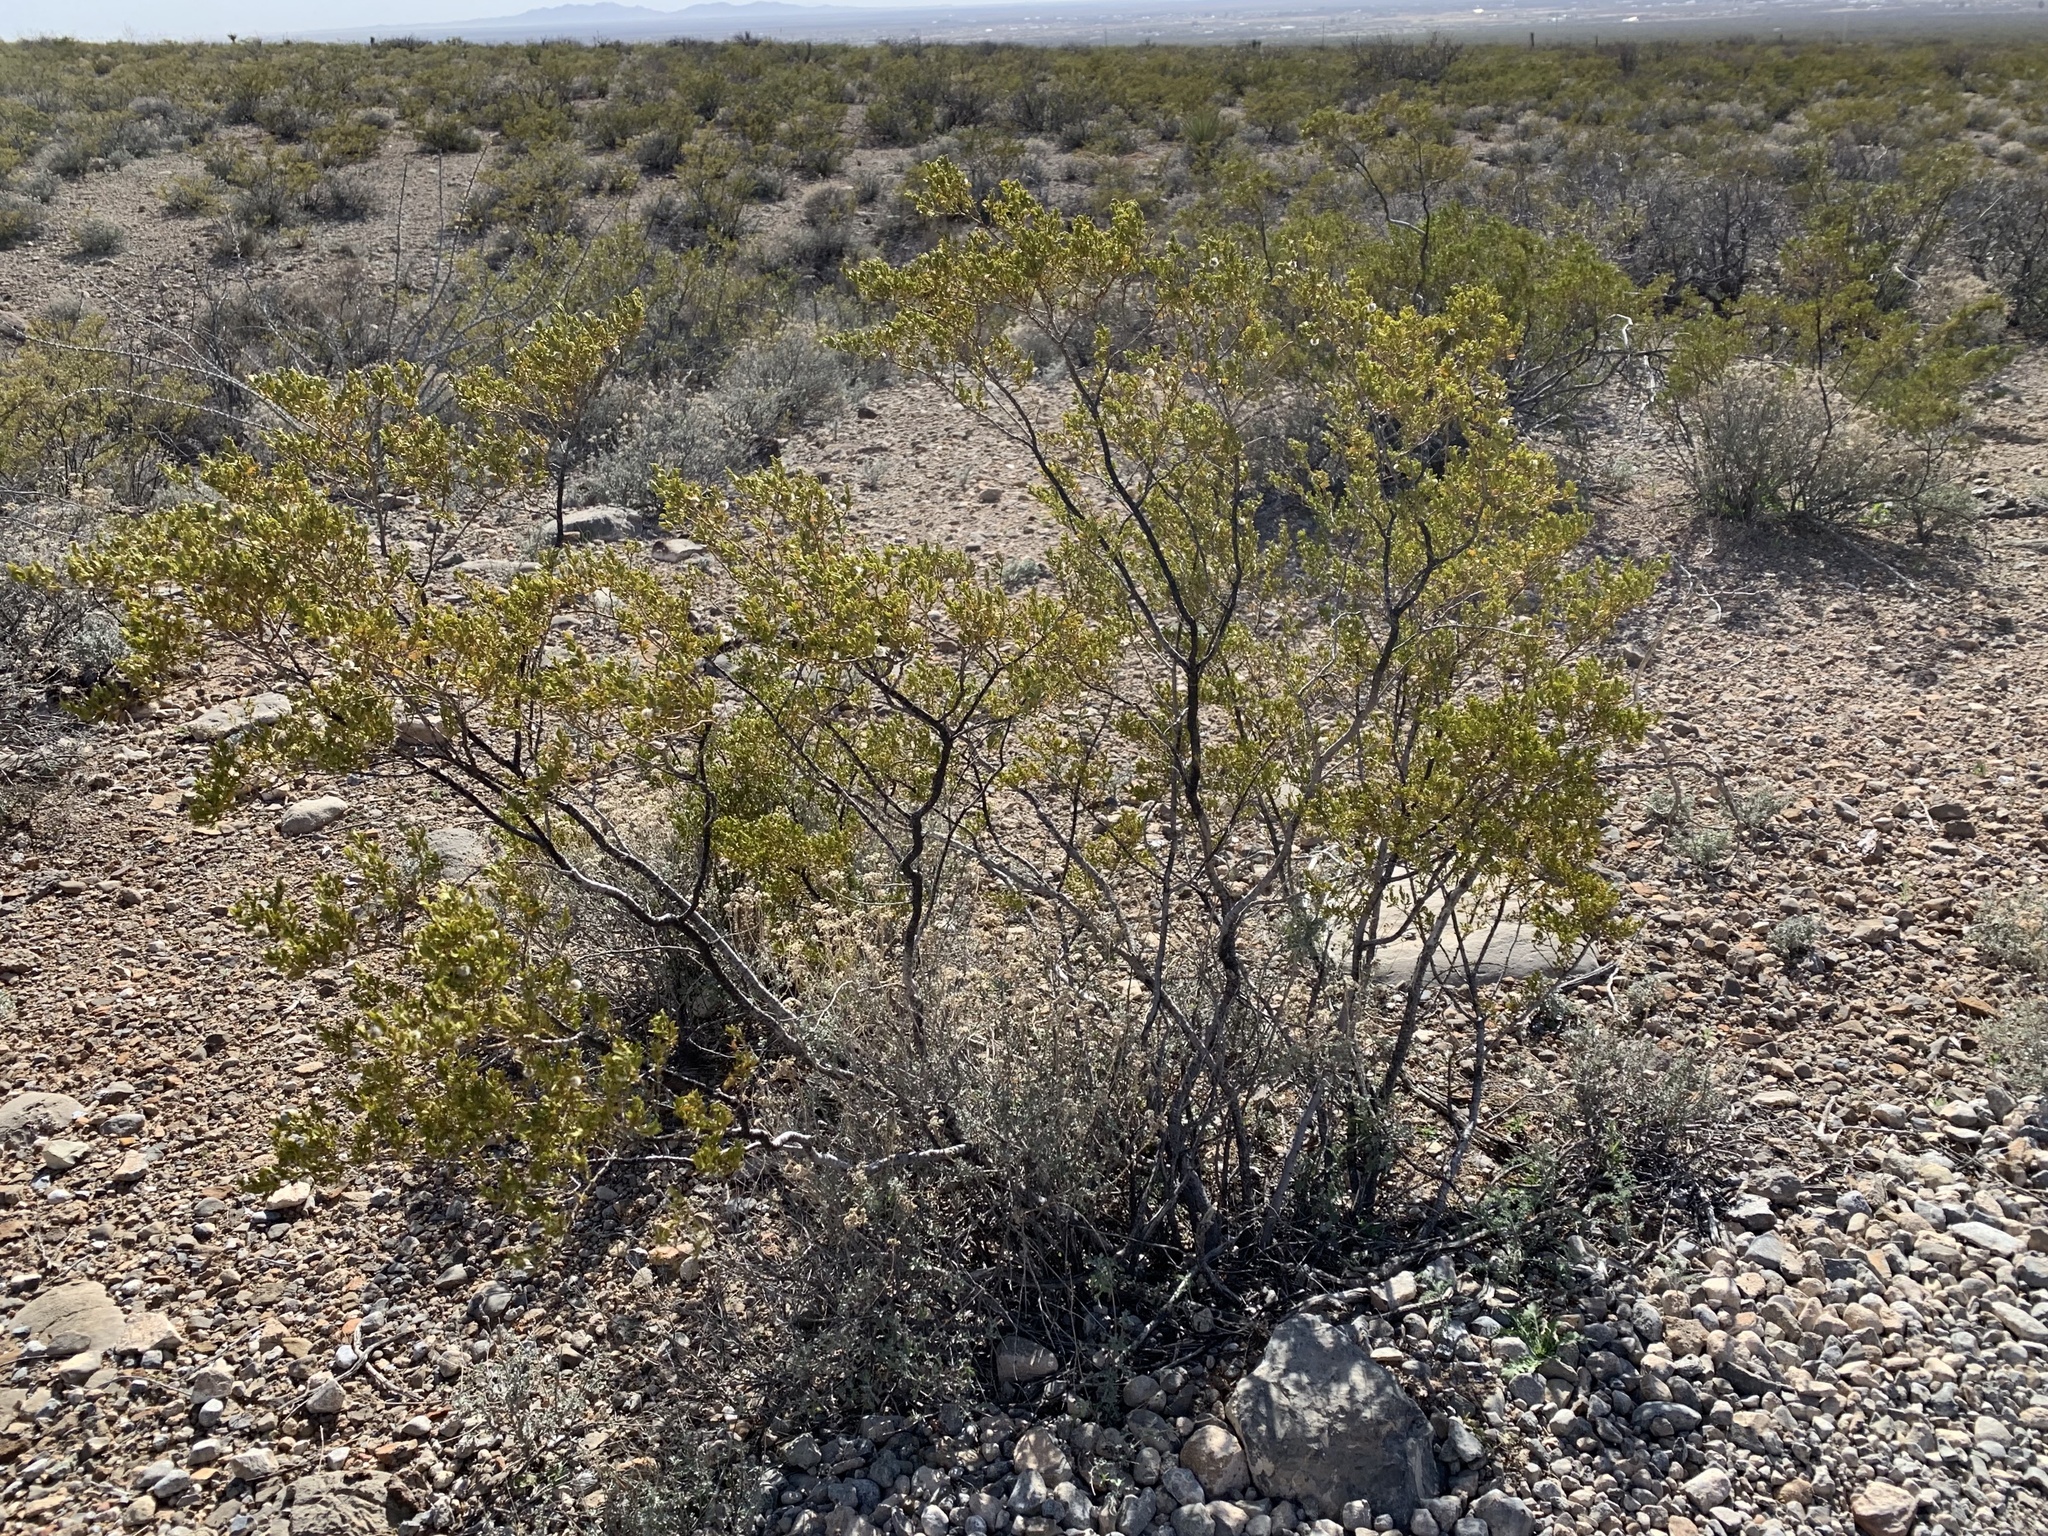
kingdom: Plantae
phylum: Tracheophyta
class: Magnoliopsida
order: Zygophyllales
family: Zygophyllaceae
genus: Larrea
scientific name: Larrea tridentata
